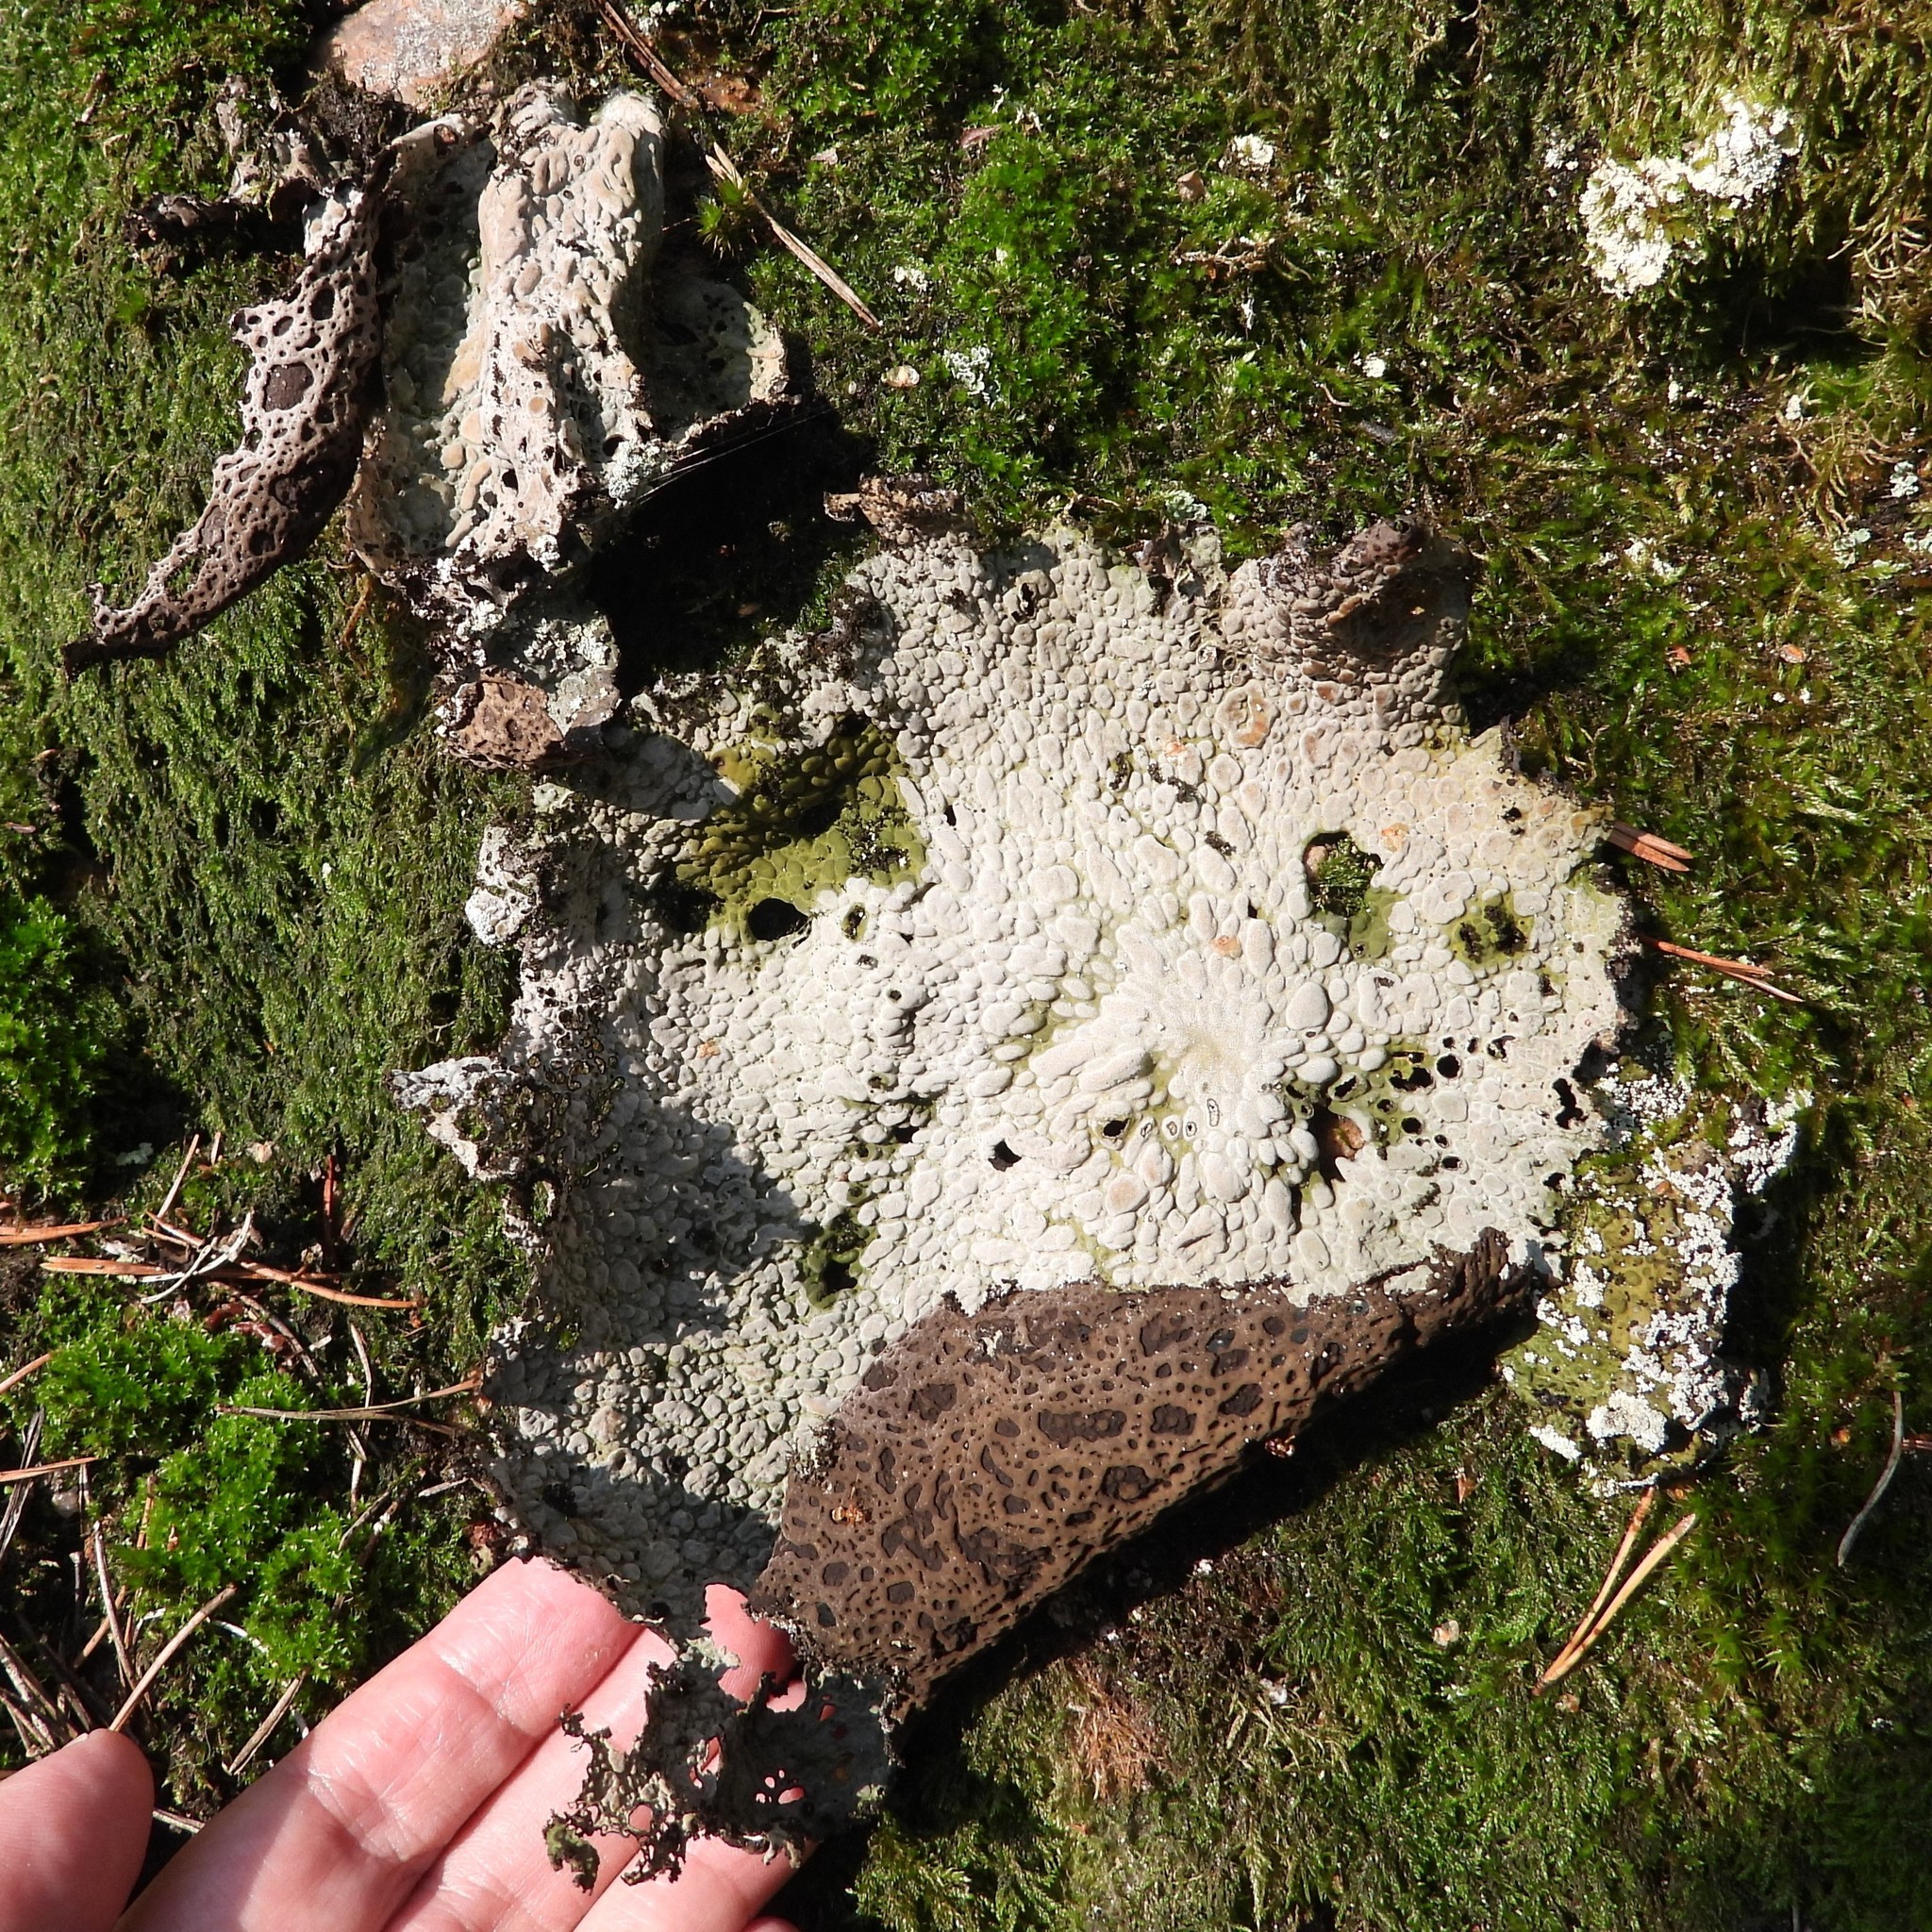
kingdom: Fungi
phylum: Ascomycota
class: Lecanoromycetes
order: Umbilicariales
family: Umbilicariaceae
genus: Lasallia
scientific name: Lasallia pustulata
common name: Blistered toadskin lichen
